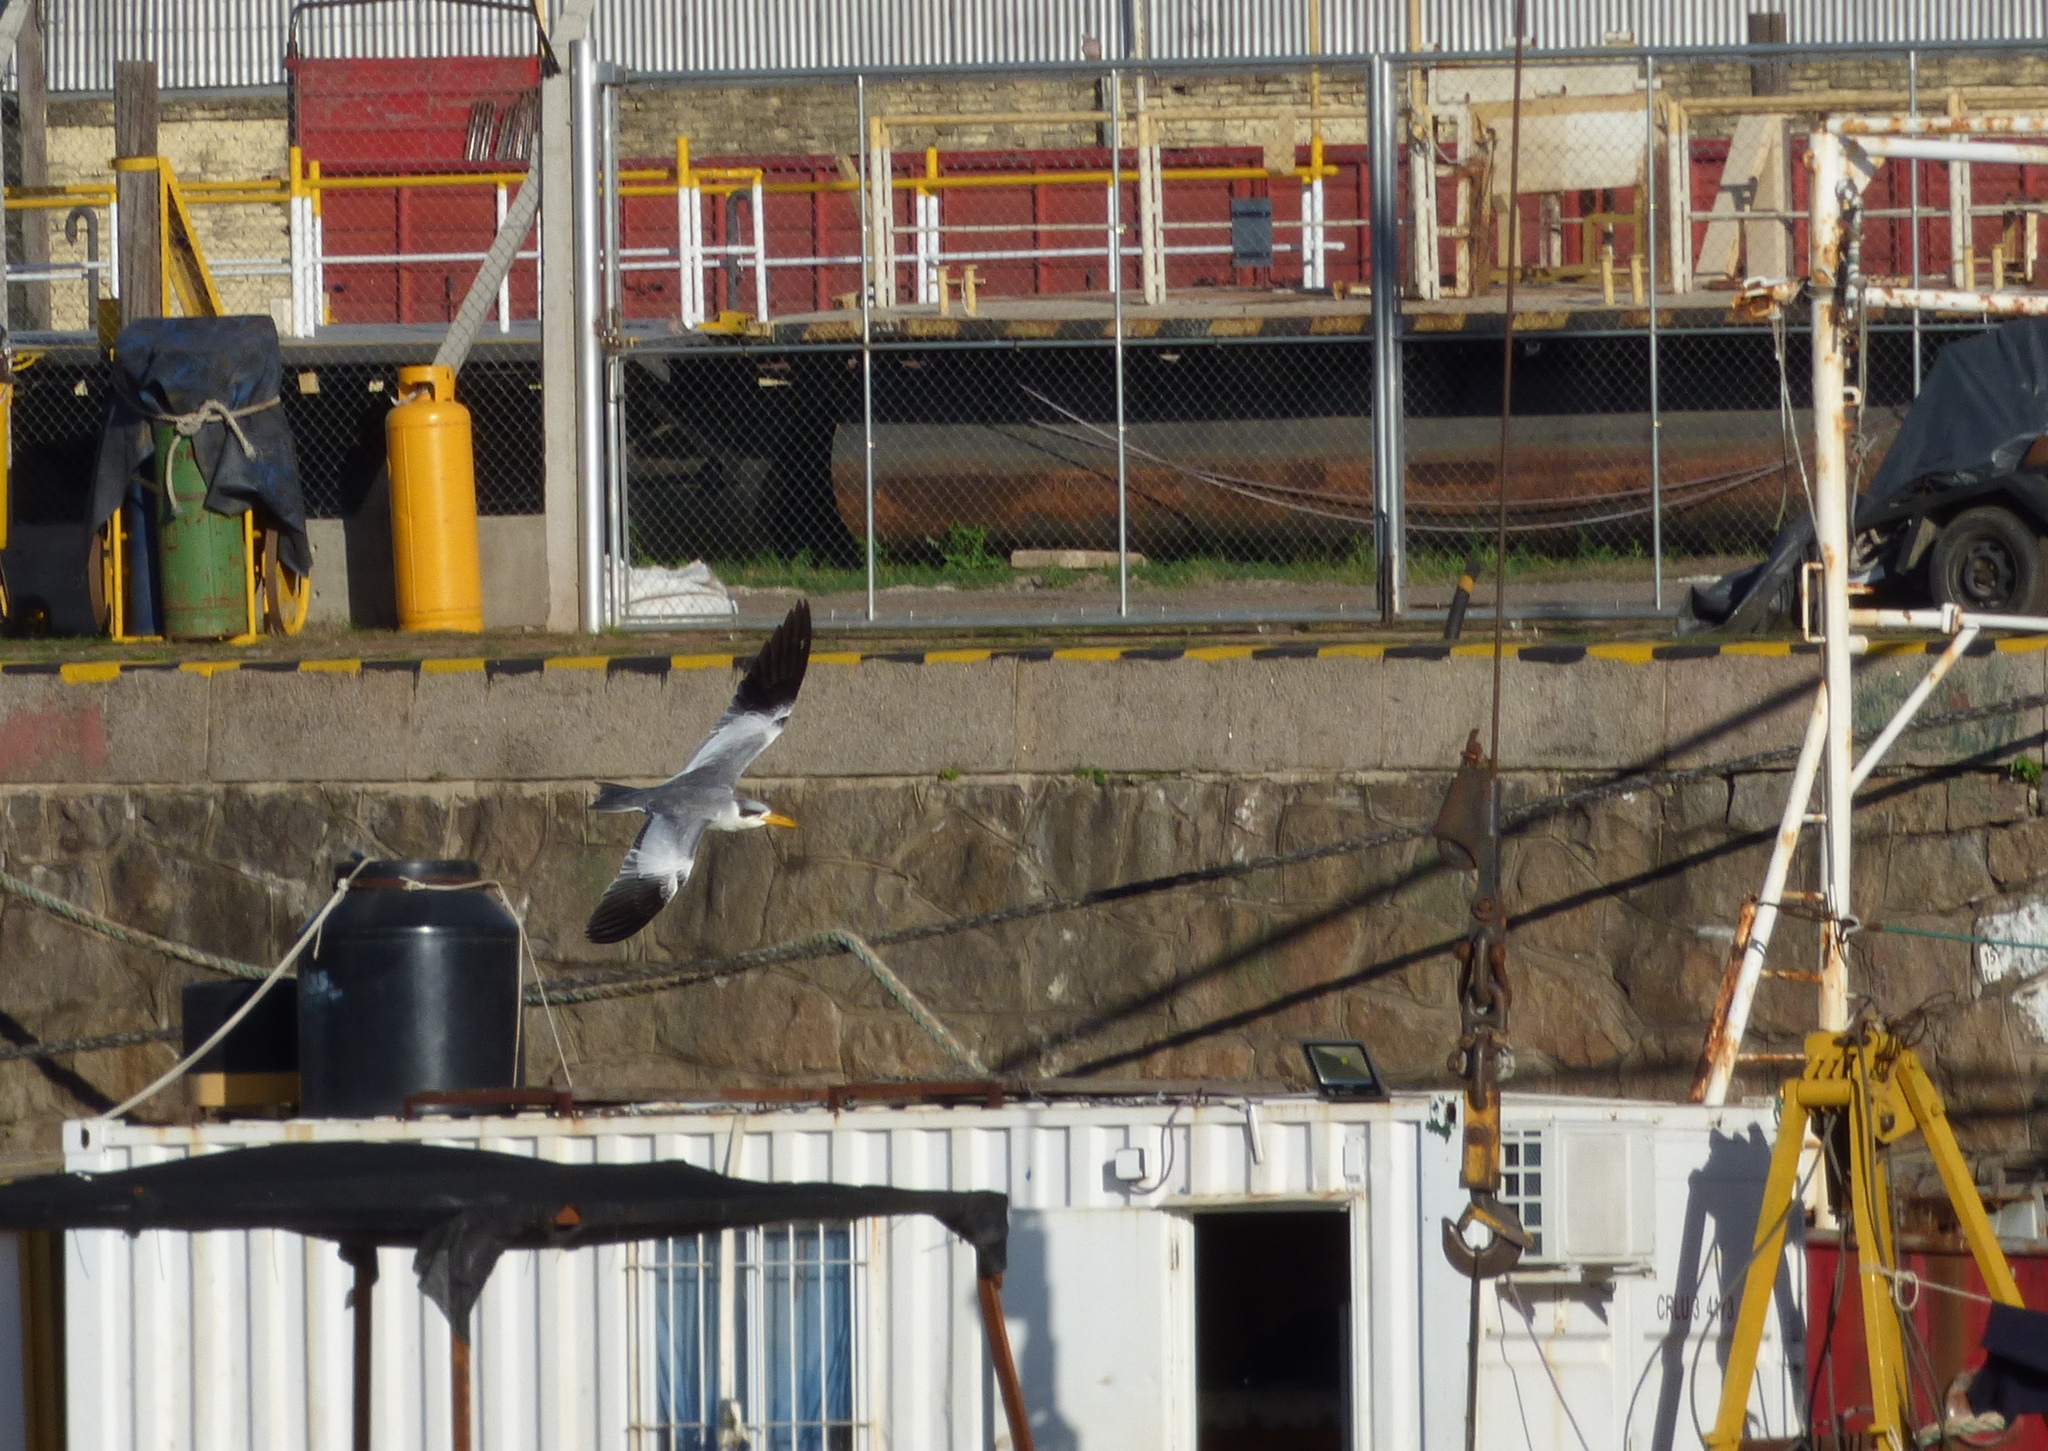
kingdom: Animalia
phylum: Chordata
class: Aves
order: Charadriiformes
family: Laridae
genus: Phaetusa
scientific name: Phaetusa simplex
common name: Large-billed tern
